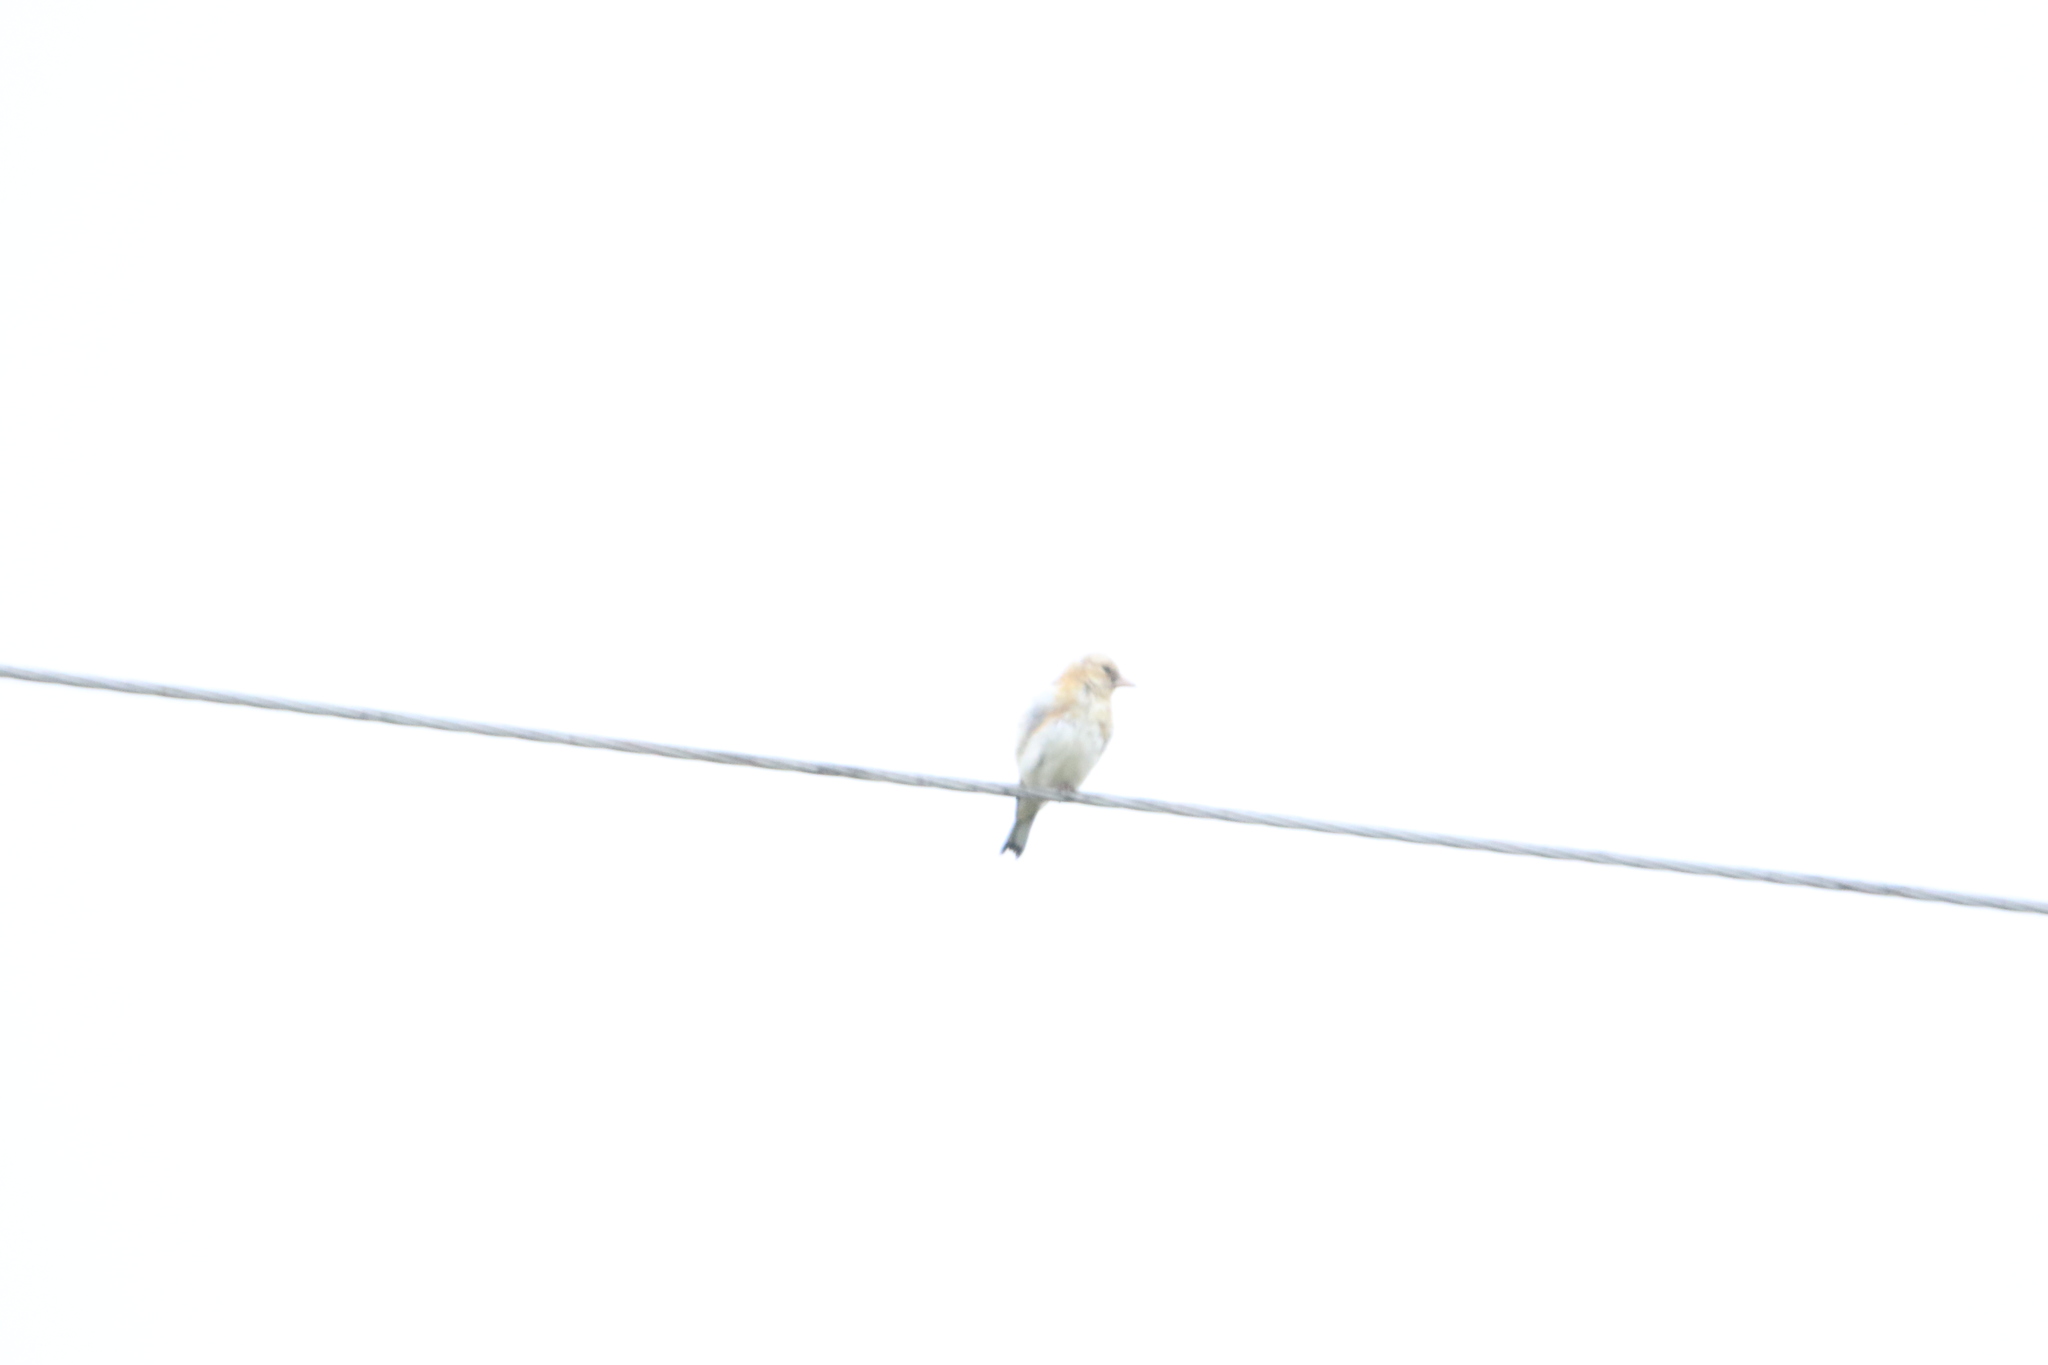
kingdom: Animalia
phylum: Chordata
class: Aves
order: Passeriformes
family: Fringillidae
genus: Carduelis
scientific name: Carduelis carduelis
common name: European goldfinch
